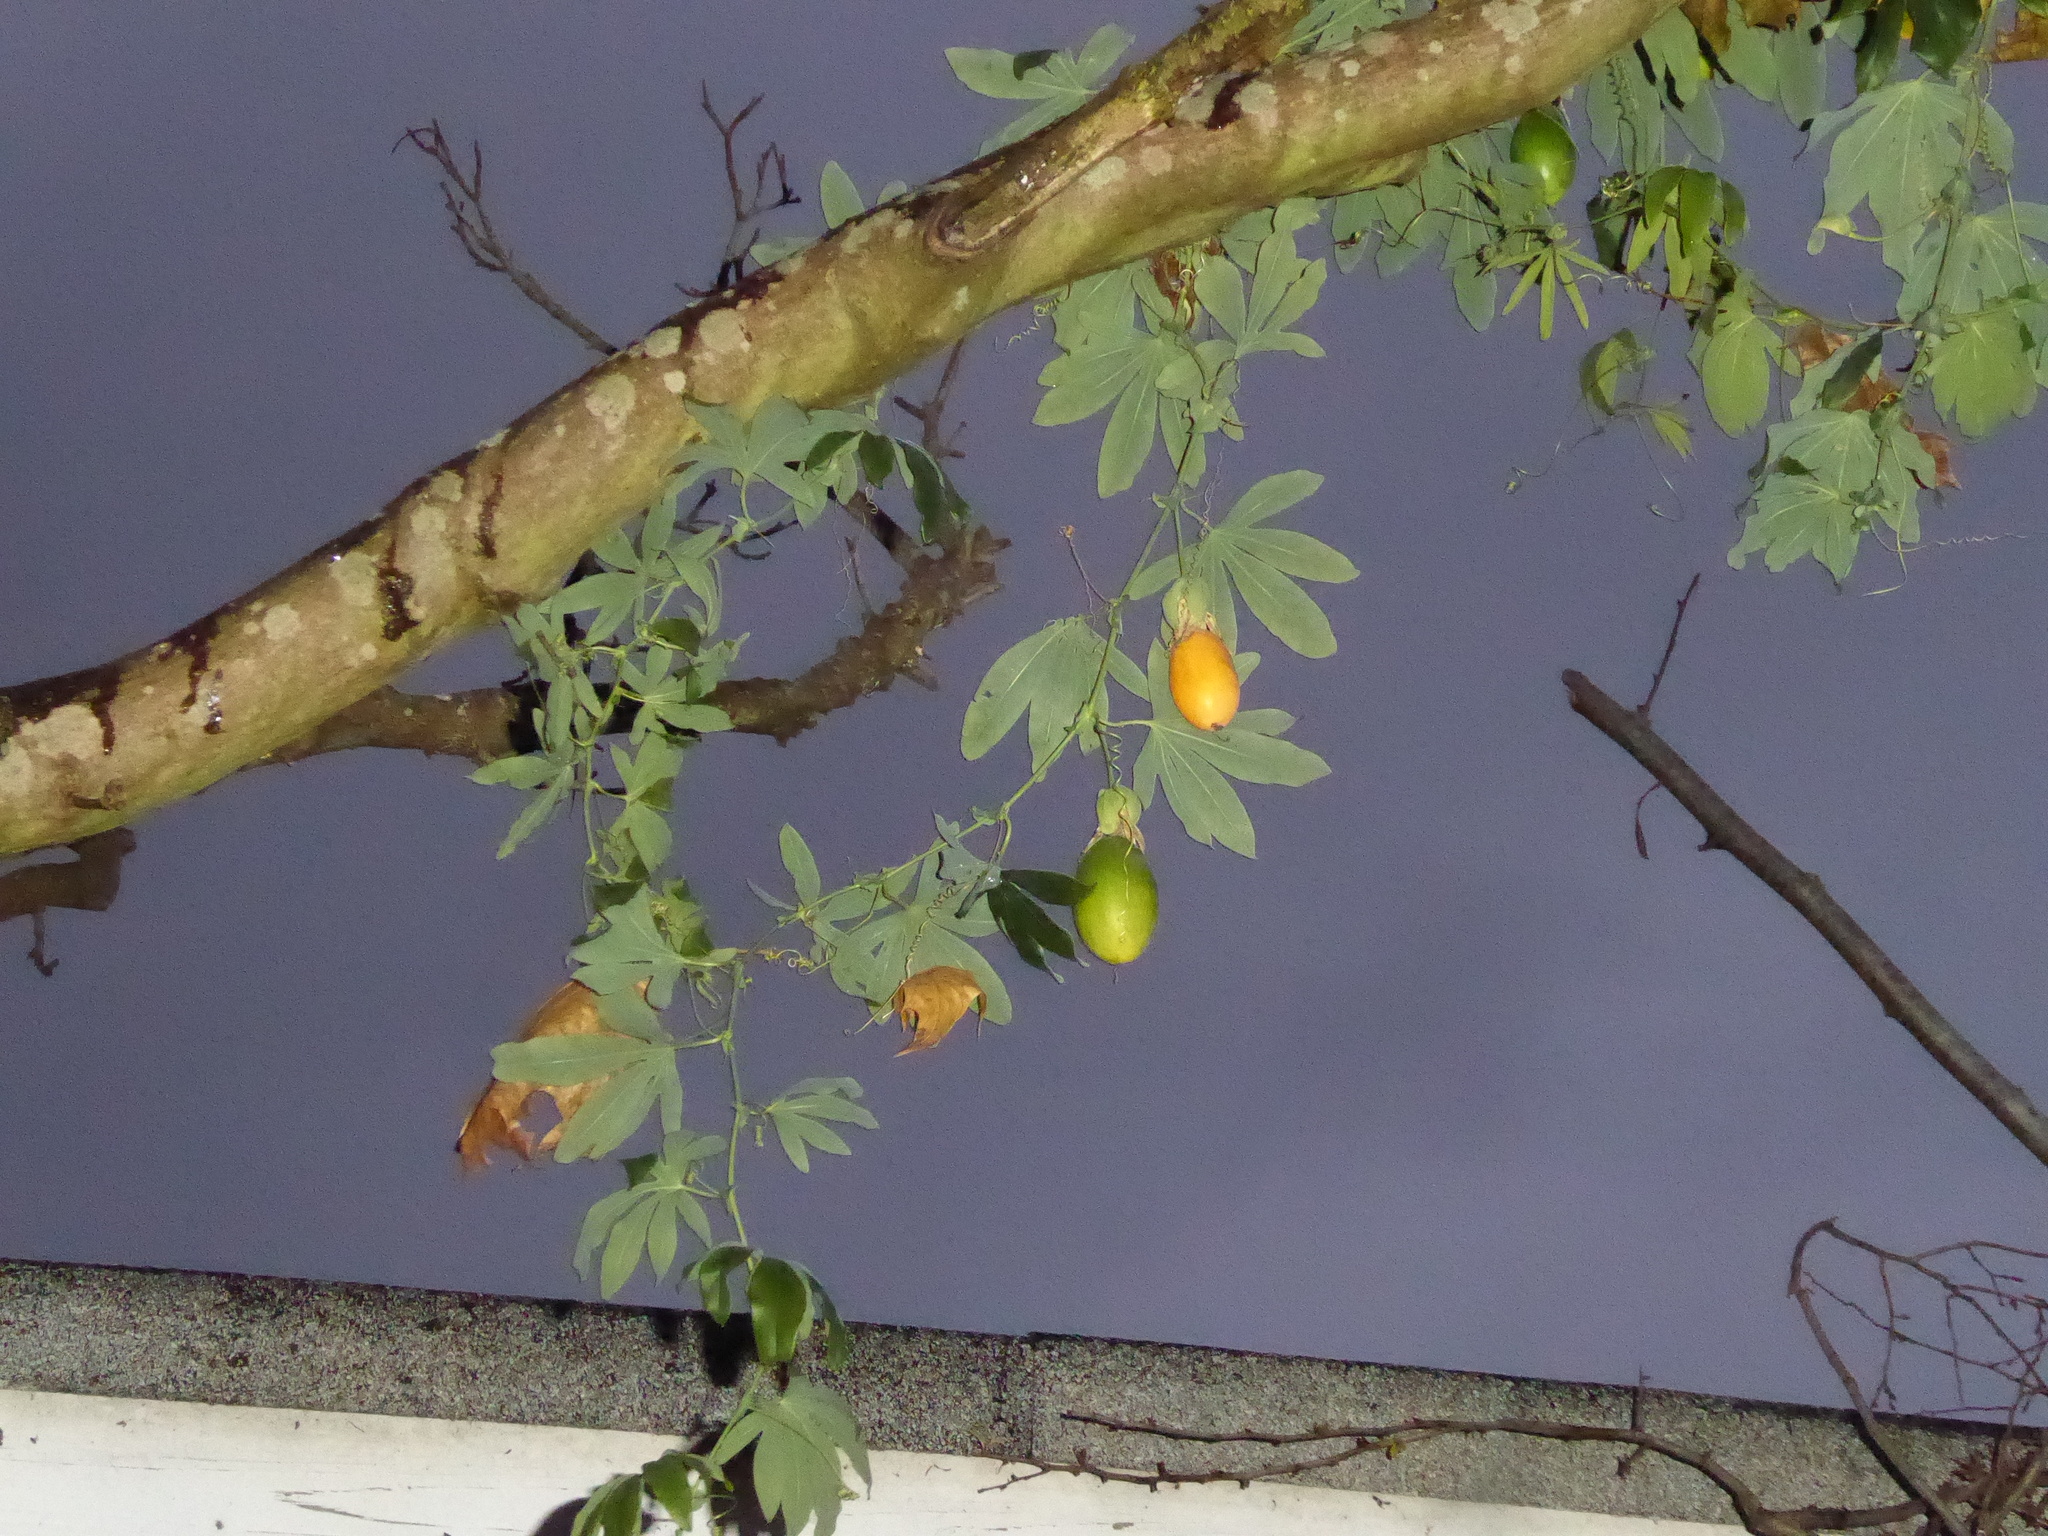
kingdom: Plantae
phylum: Tracheophyta
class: Magnoliopsida
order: Malpighiales
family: Passifloraceae
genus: Passiflora
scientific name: Passiflora caerulea
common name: Blue passionflower
